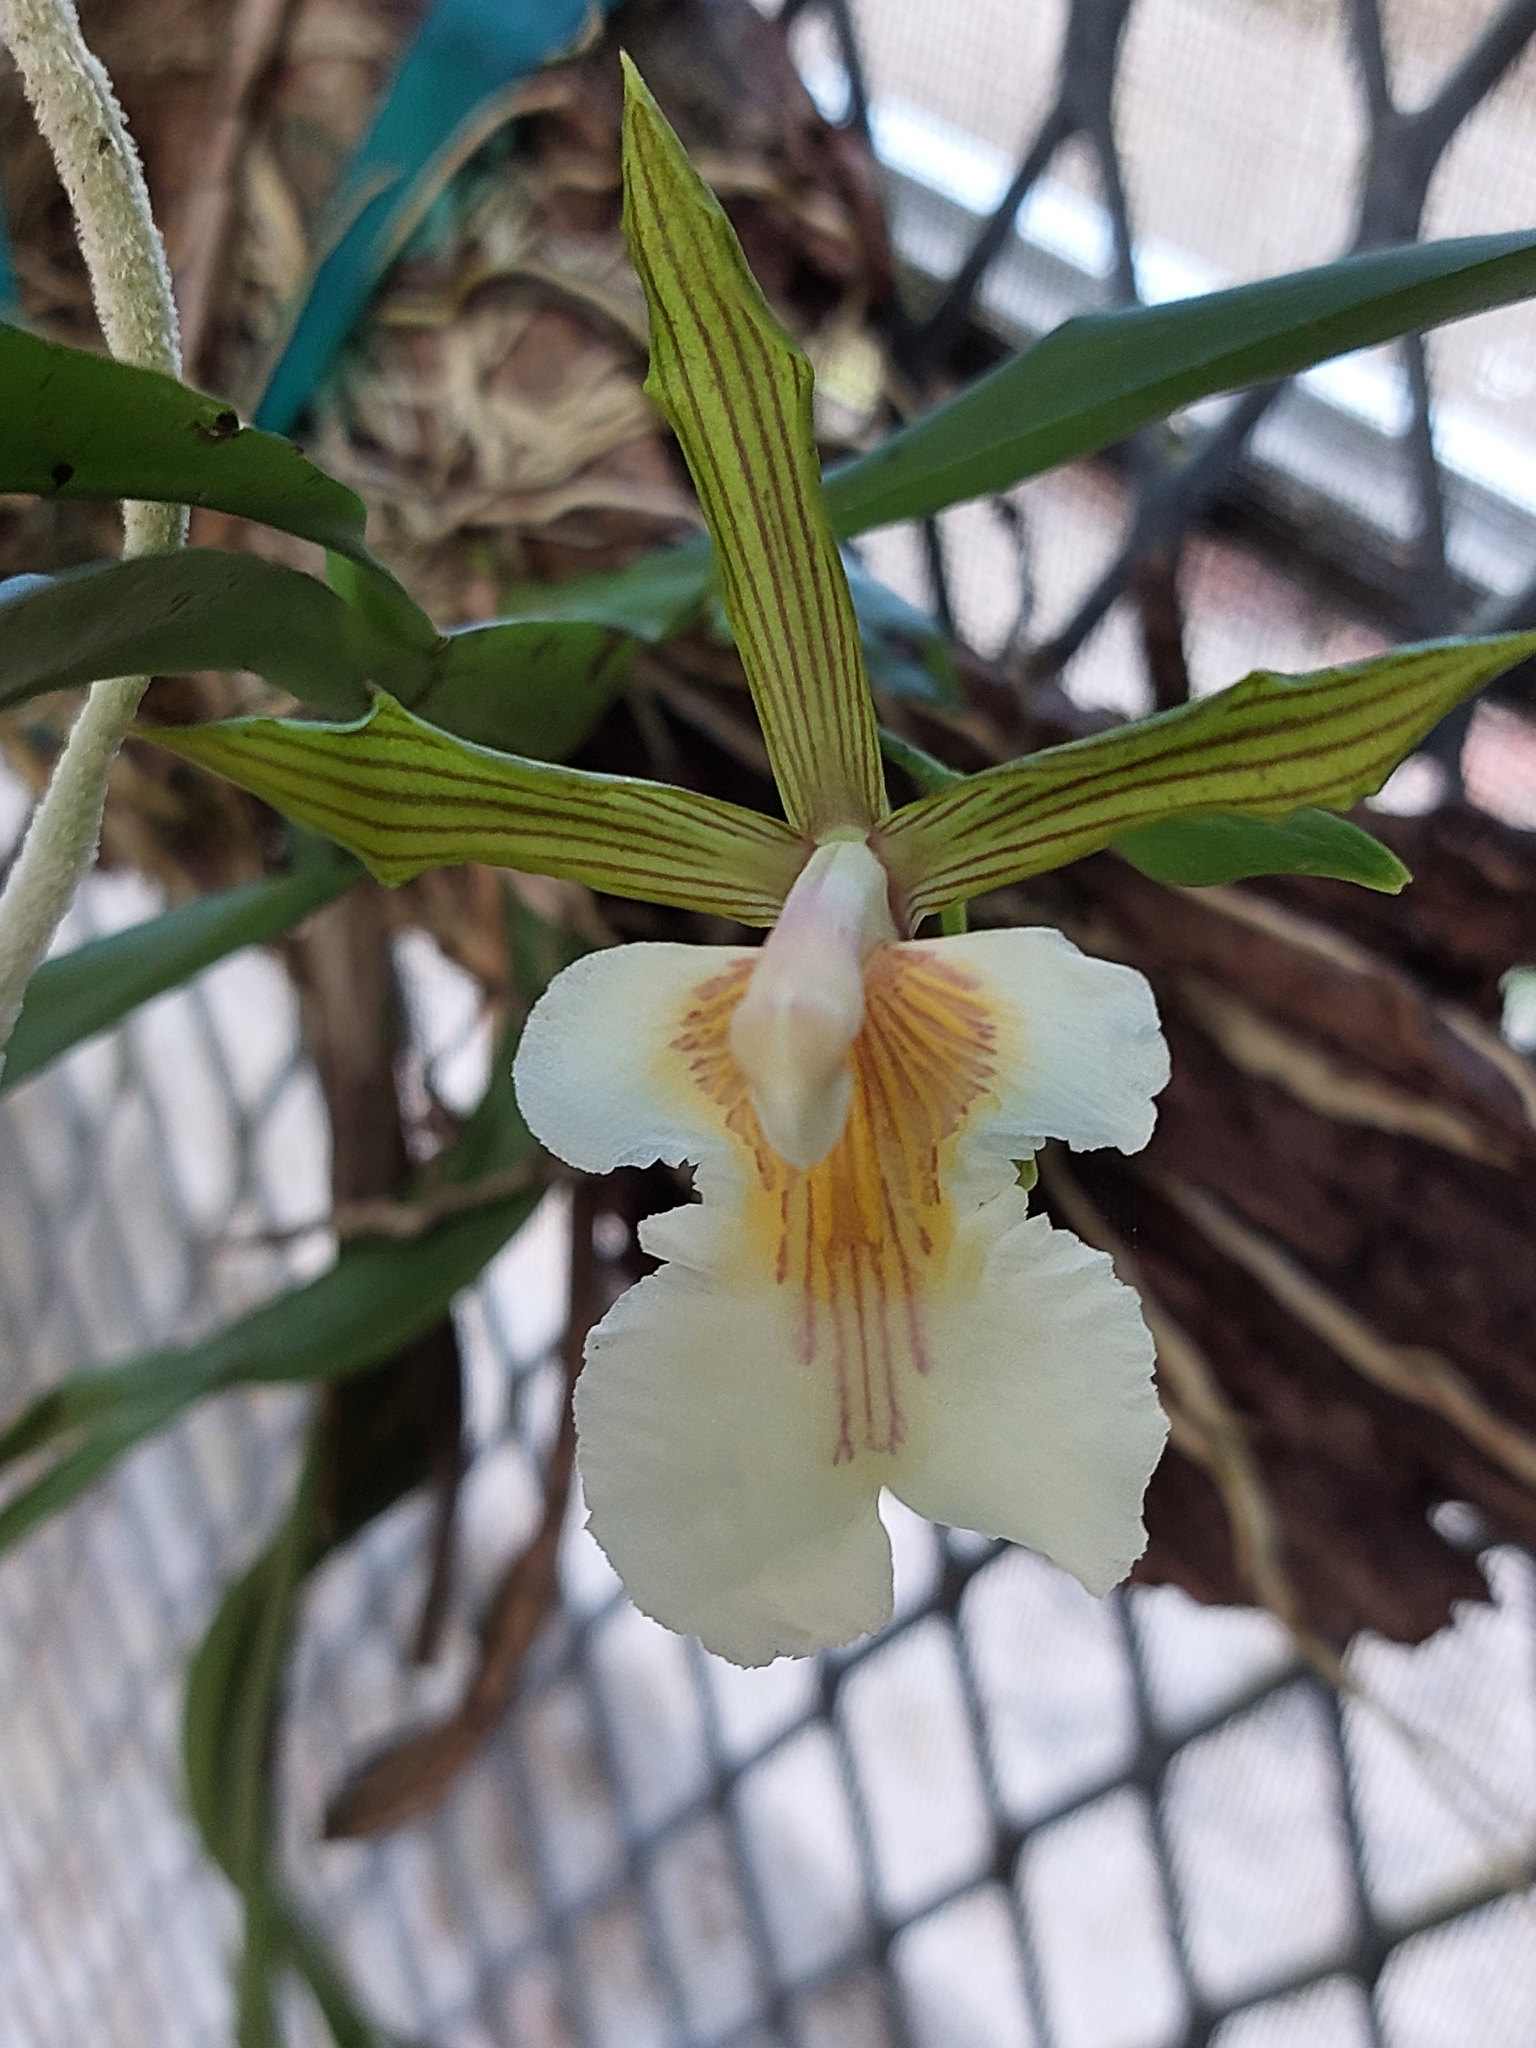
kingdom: Plantae
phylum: Tracheophyta
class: Liliopsida
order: Asparagales
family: Orchidaceae
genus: Aspasia
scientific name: Aspasia principissa
